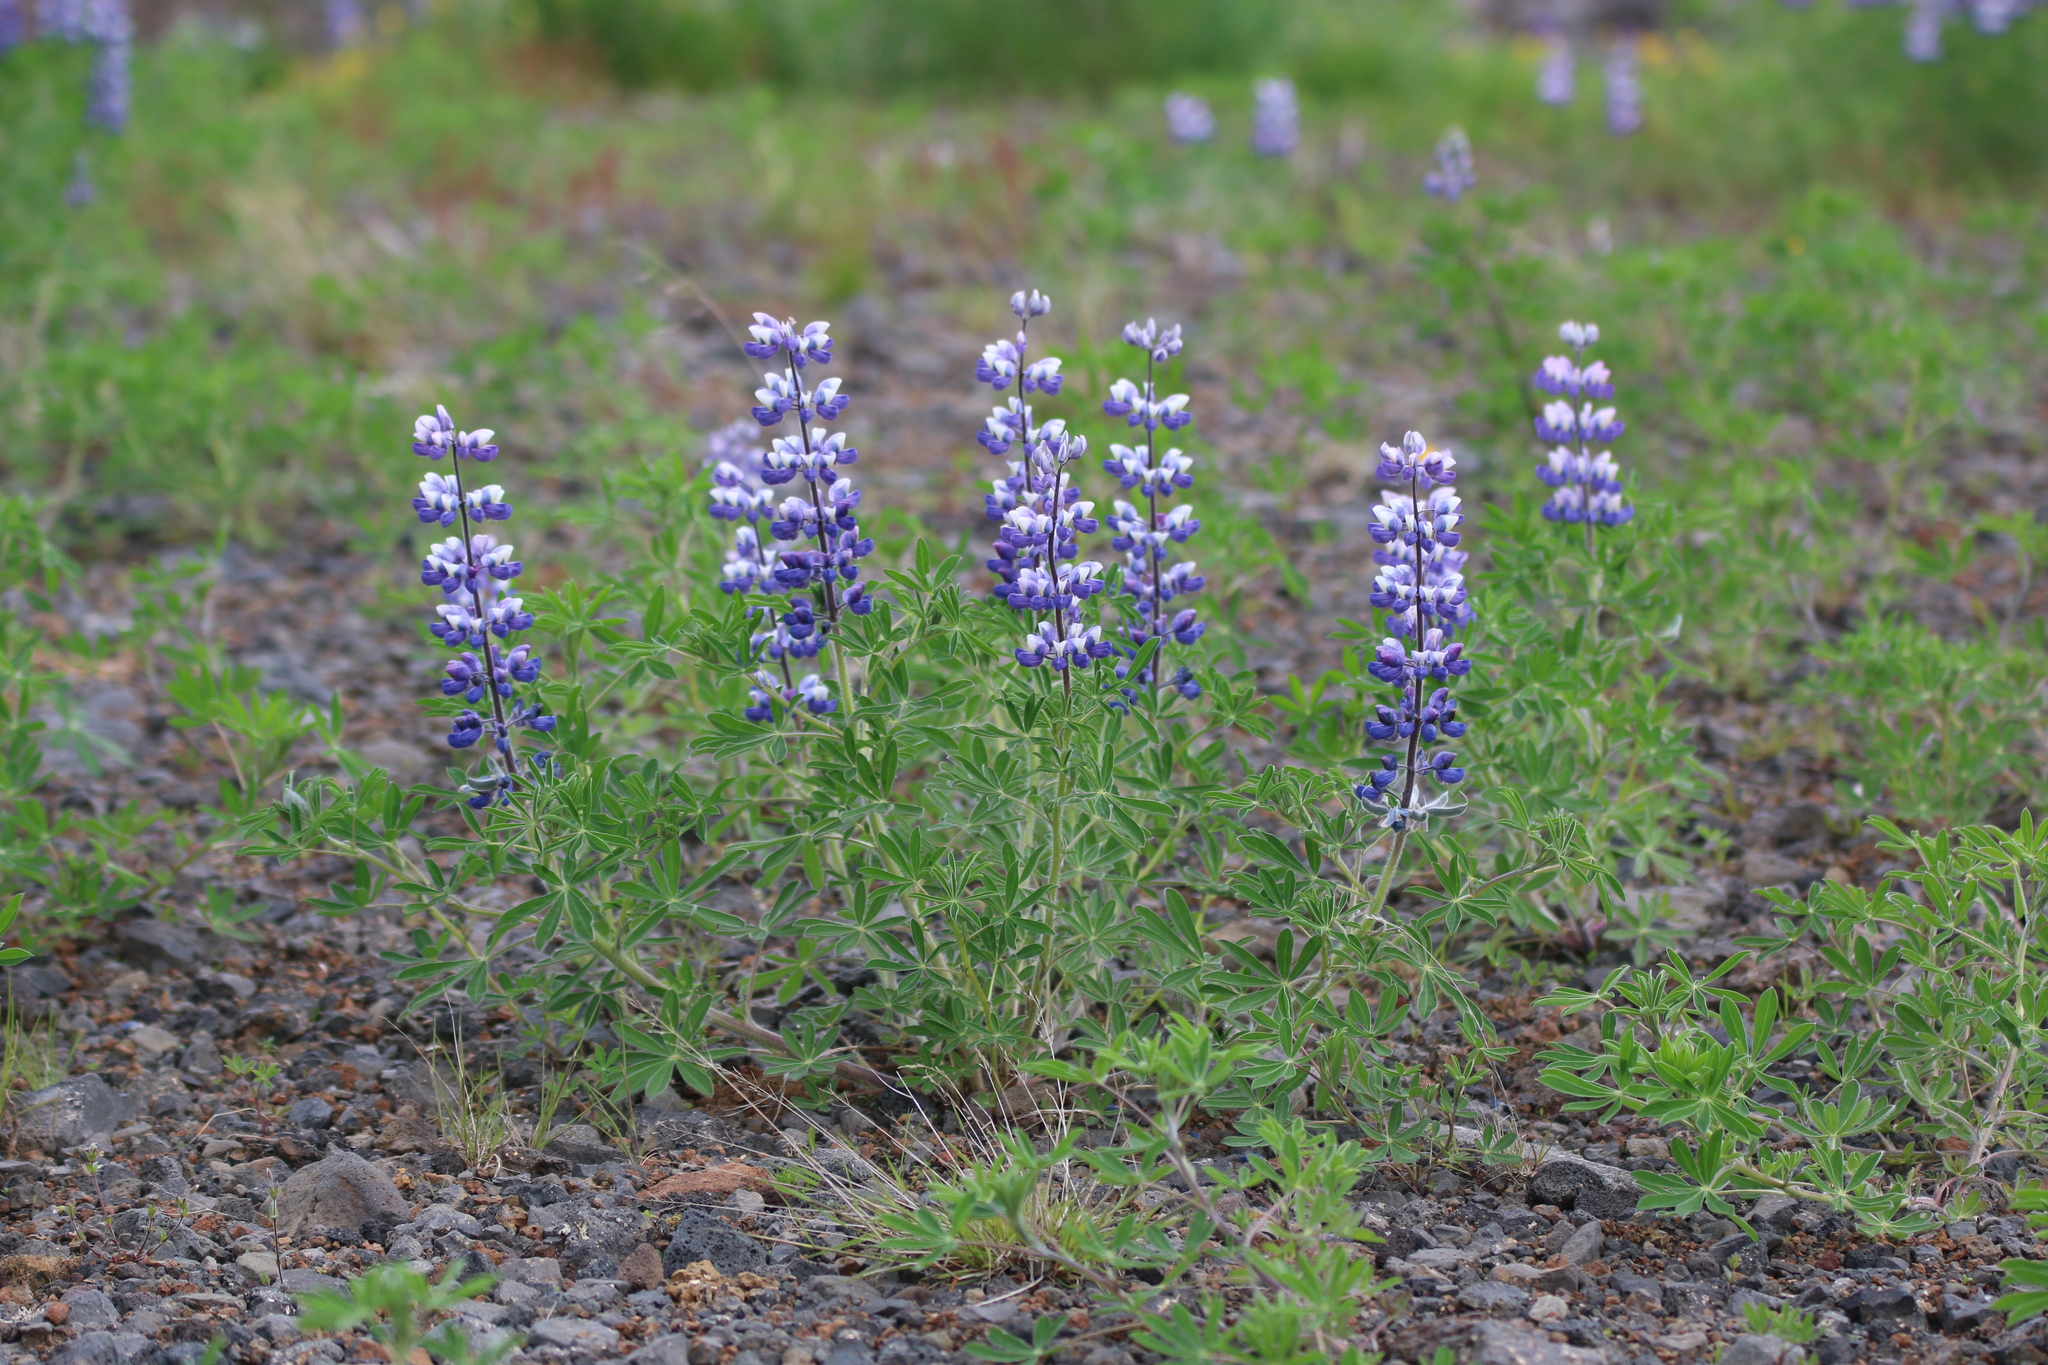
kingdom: Plantae
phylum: Tracheophyta
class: Magnoliopsida
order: Fabales
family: Fabaceae
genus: Lupinus
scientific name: Lupinus nootkatensis
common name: Nootka lupine
